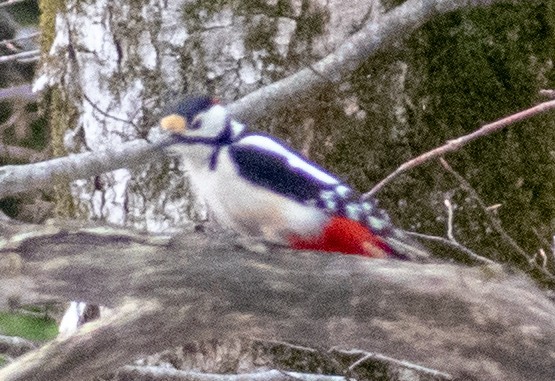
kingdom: Animalia
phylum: Chordata
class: Aves
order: Piciformes
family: Picidae
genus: Dendrocopos
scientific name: Dendrocopos major
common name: Great spotted woodpecker
